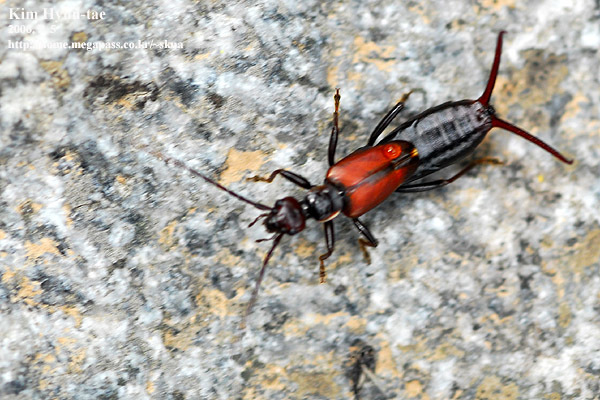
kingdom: Animalia
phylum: Arthropoda
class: Insecta
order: Dermaptera
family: Forficulidae
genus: Timomenus
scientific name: Timomenus komarovi
